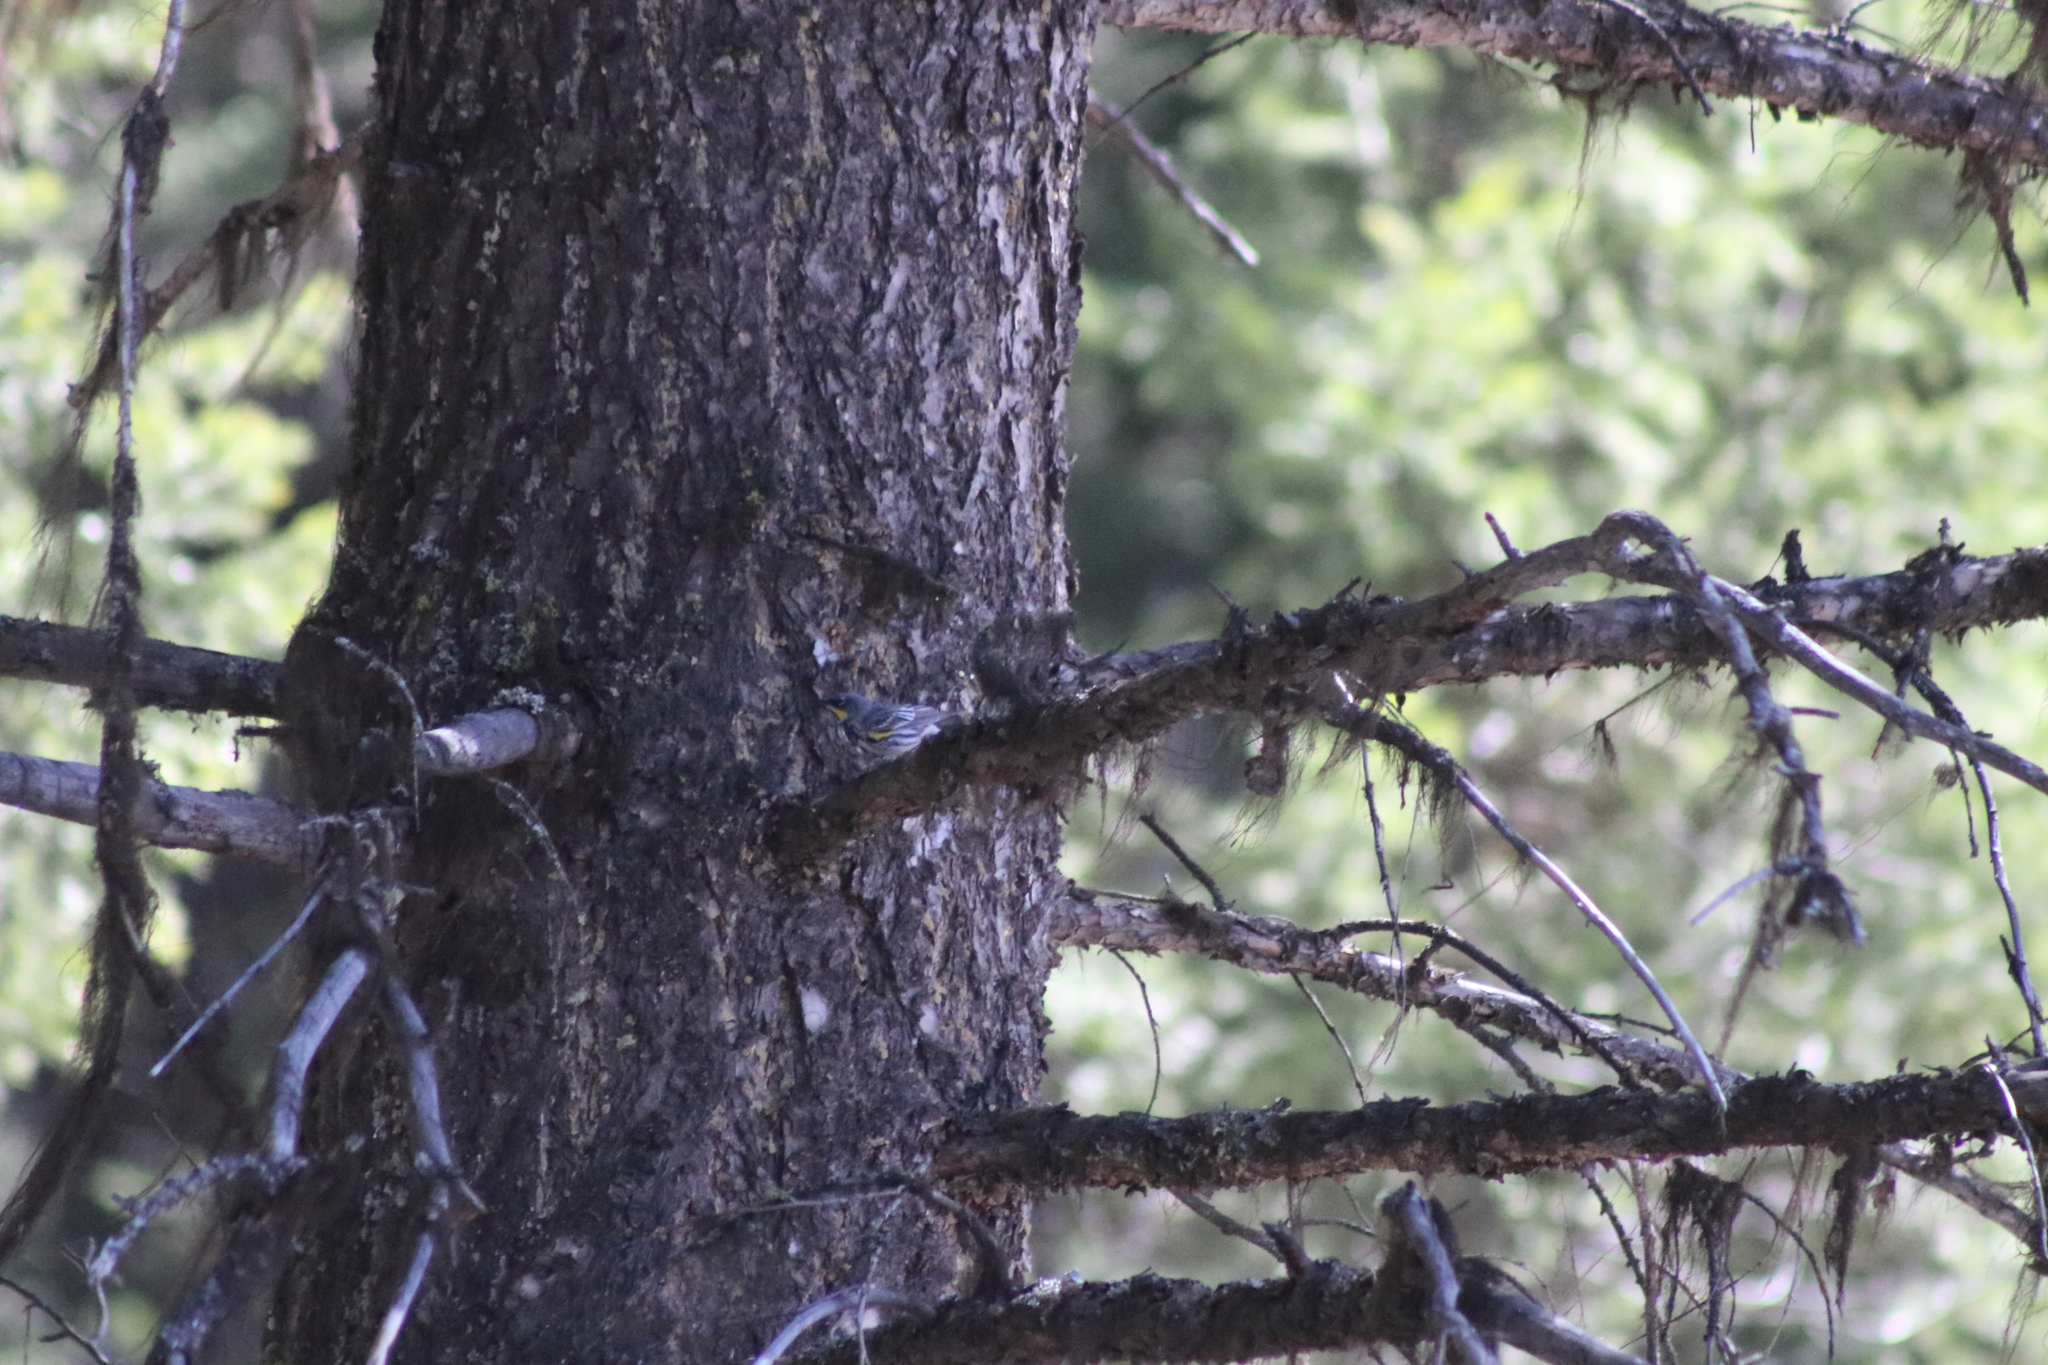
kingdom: Animalia
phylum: Chordata
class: Aves
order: Passeriformes
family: Parulidae
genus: Setophaga
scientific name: Setophaga coronata
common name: Myrtle warbler
